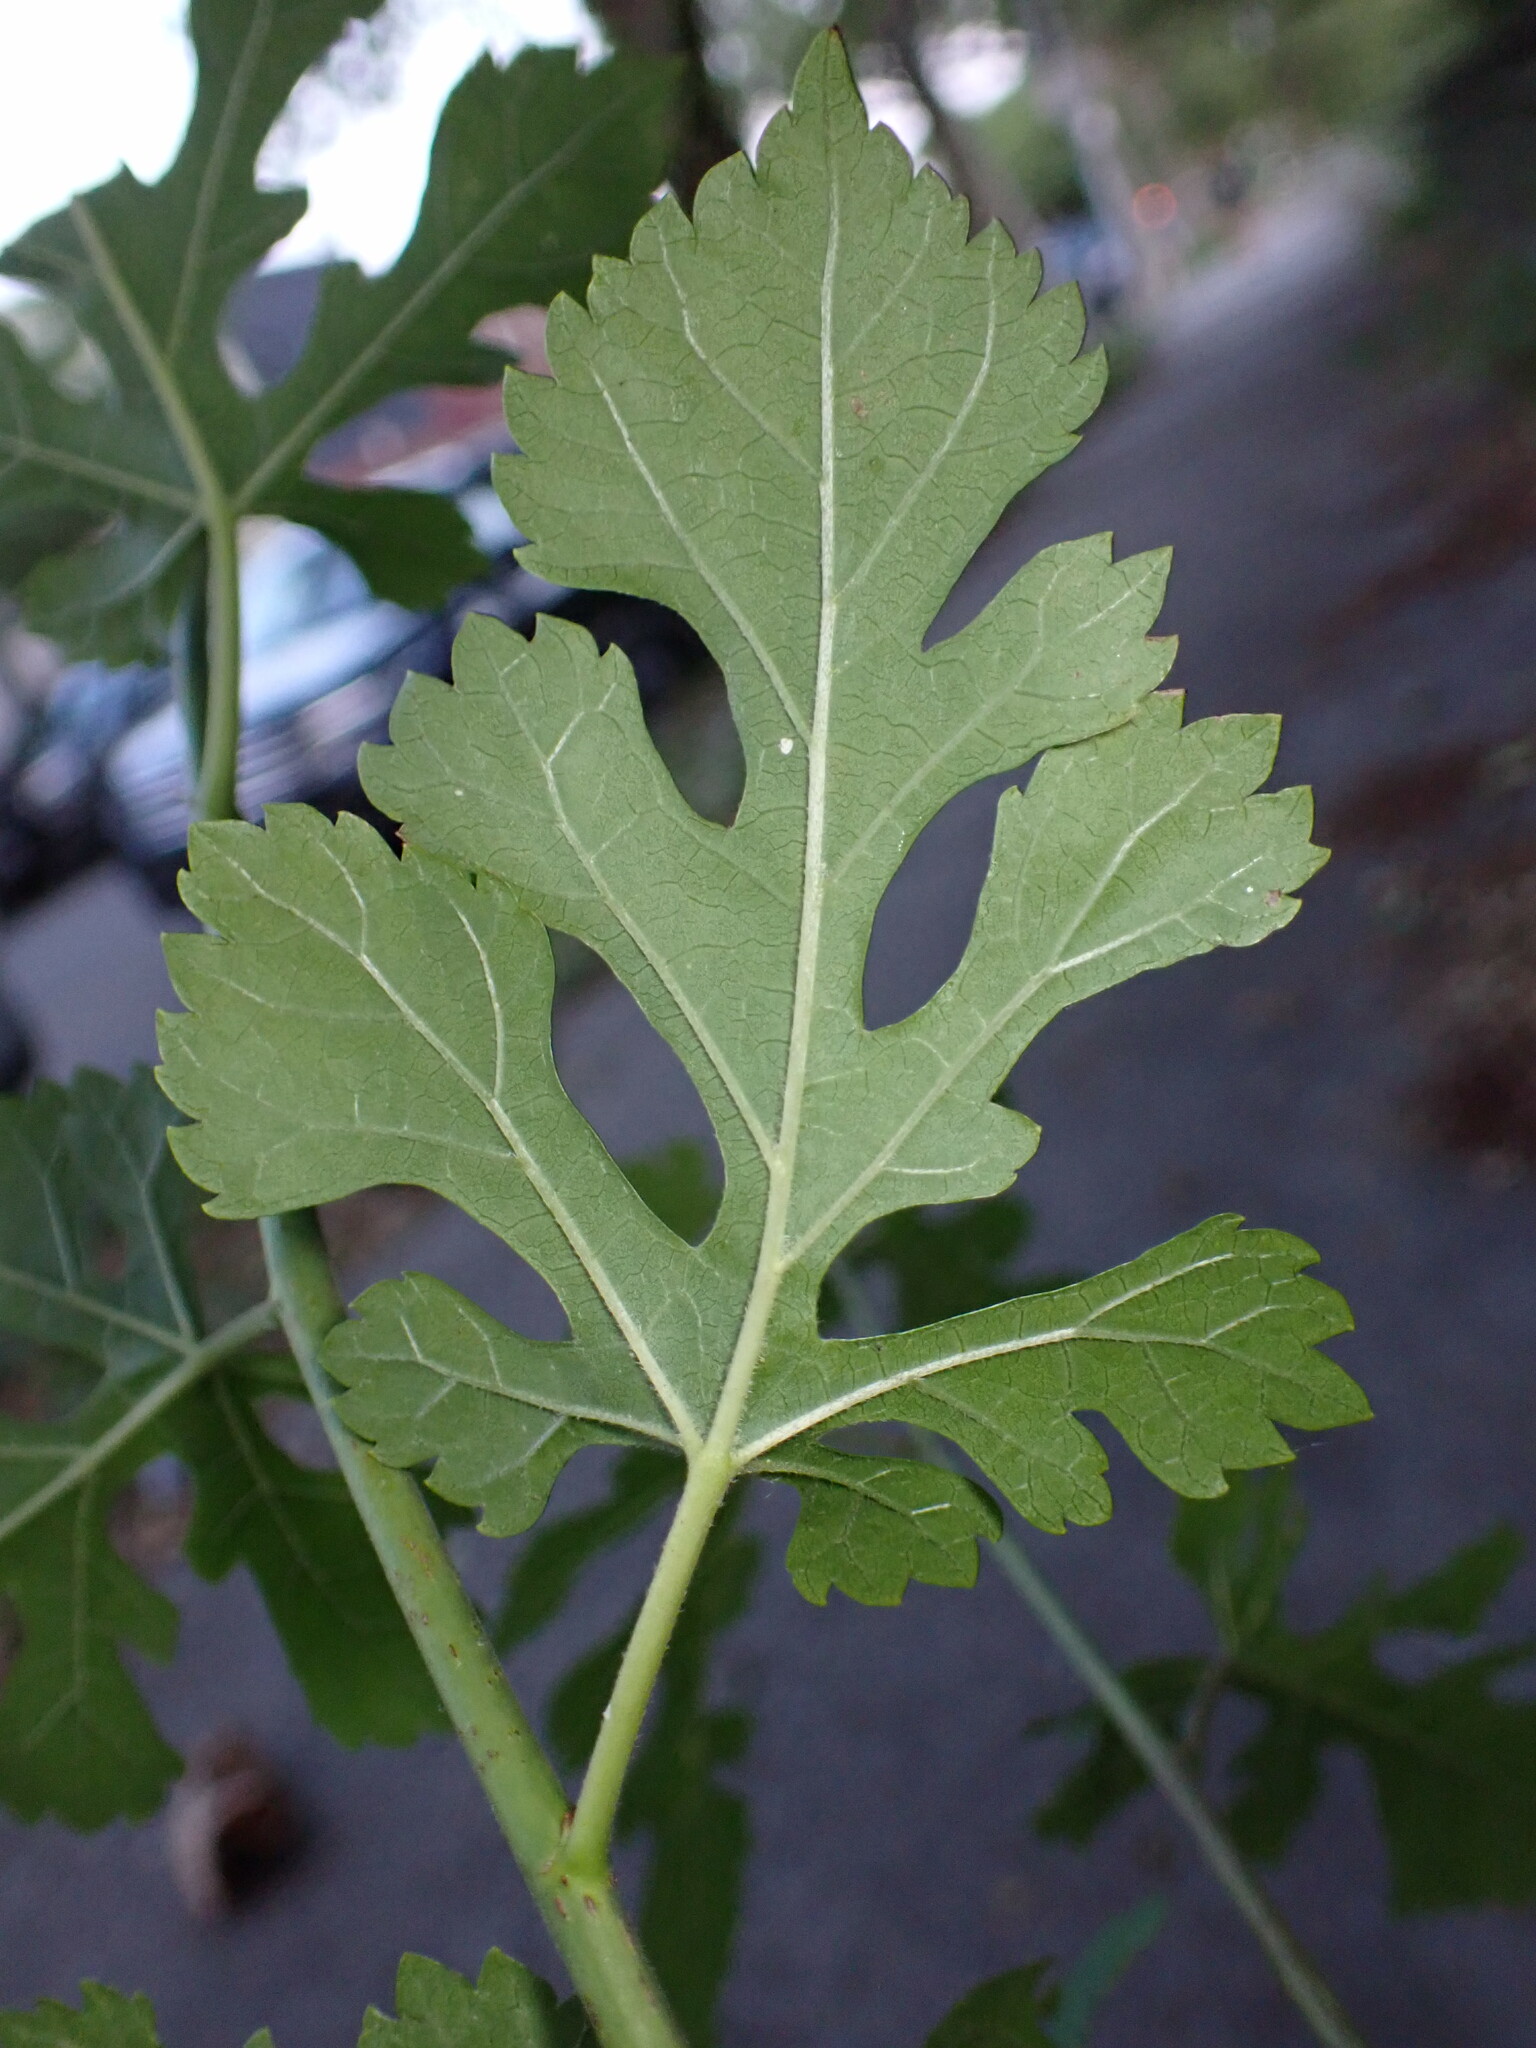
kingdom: Plantae
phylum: Tracheophyta
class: Magnoliopsida
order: Rosales
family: Moraceae
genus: Morus
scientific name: Morus alba
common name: White mulberry
